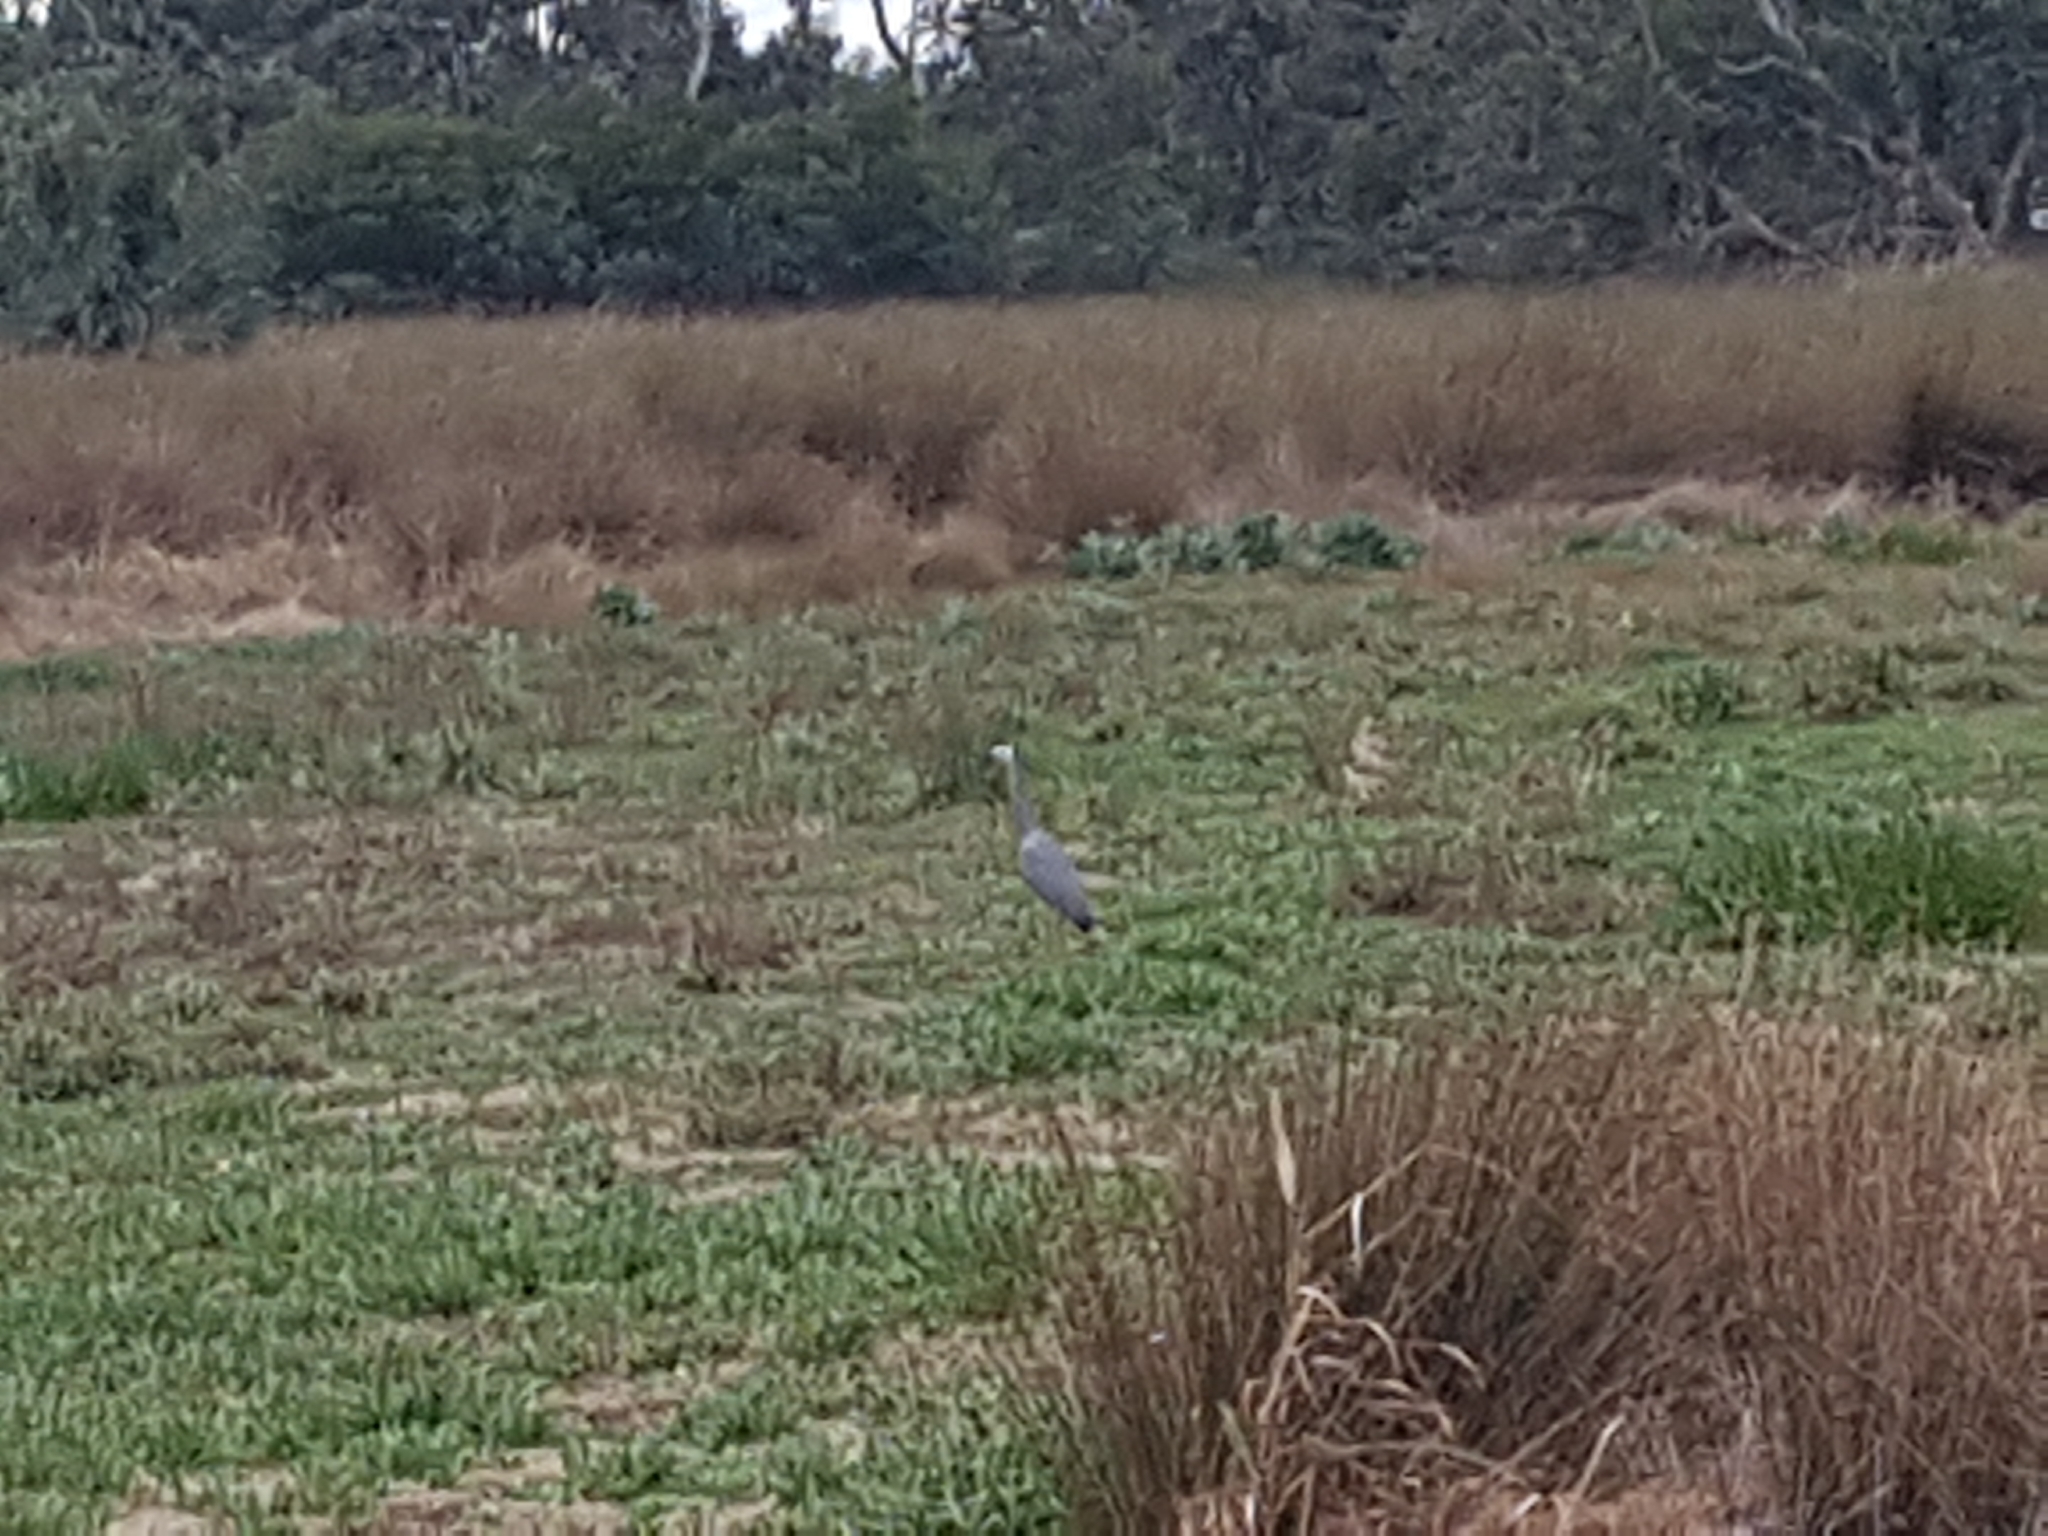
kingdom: Animalia
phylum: Chordata
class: Aves
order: Pelecaniformes
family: Ardeidae
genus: Egretta
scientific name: Egretta novaehollandiae
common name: White-faced heron
